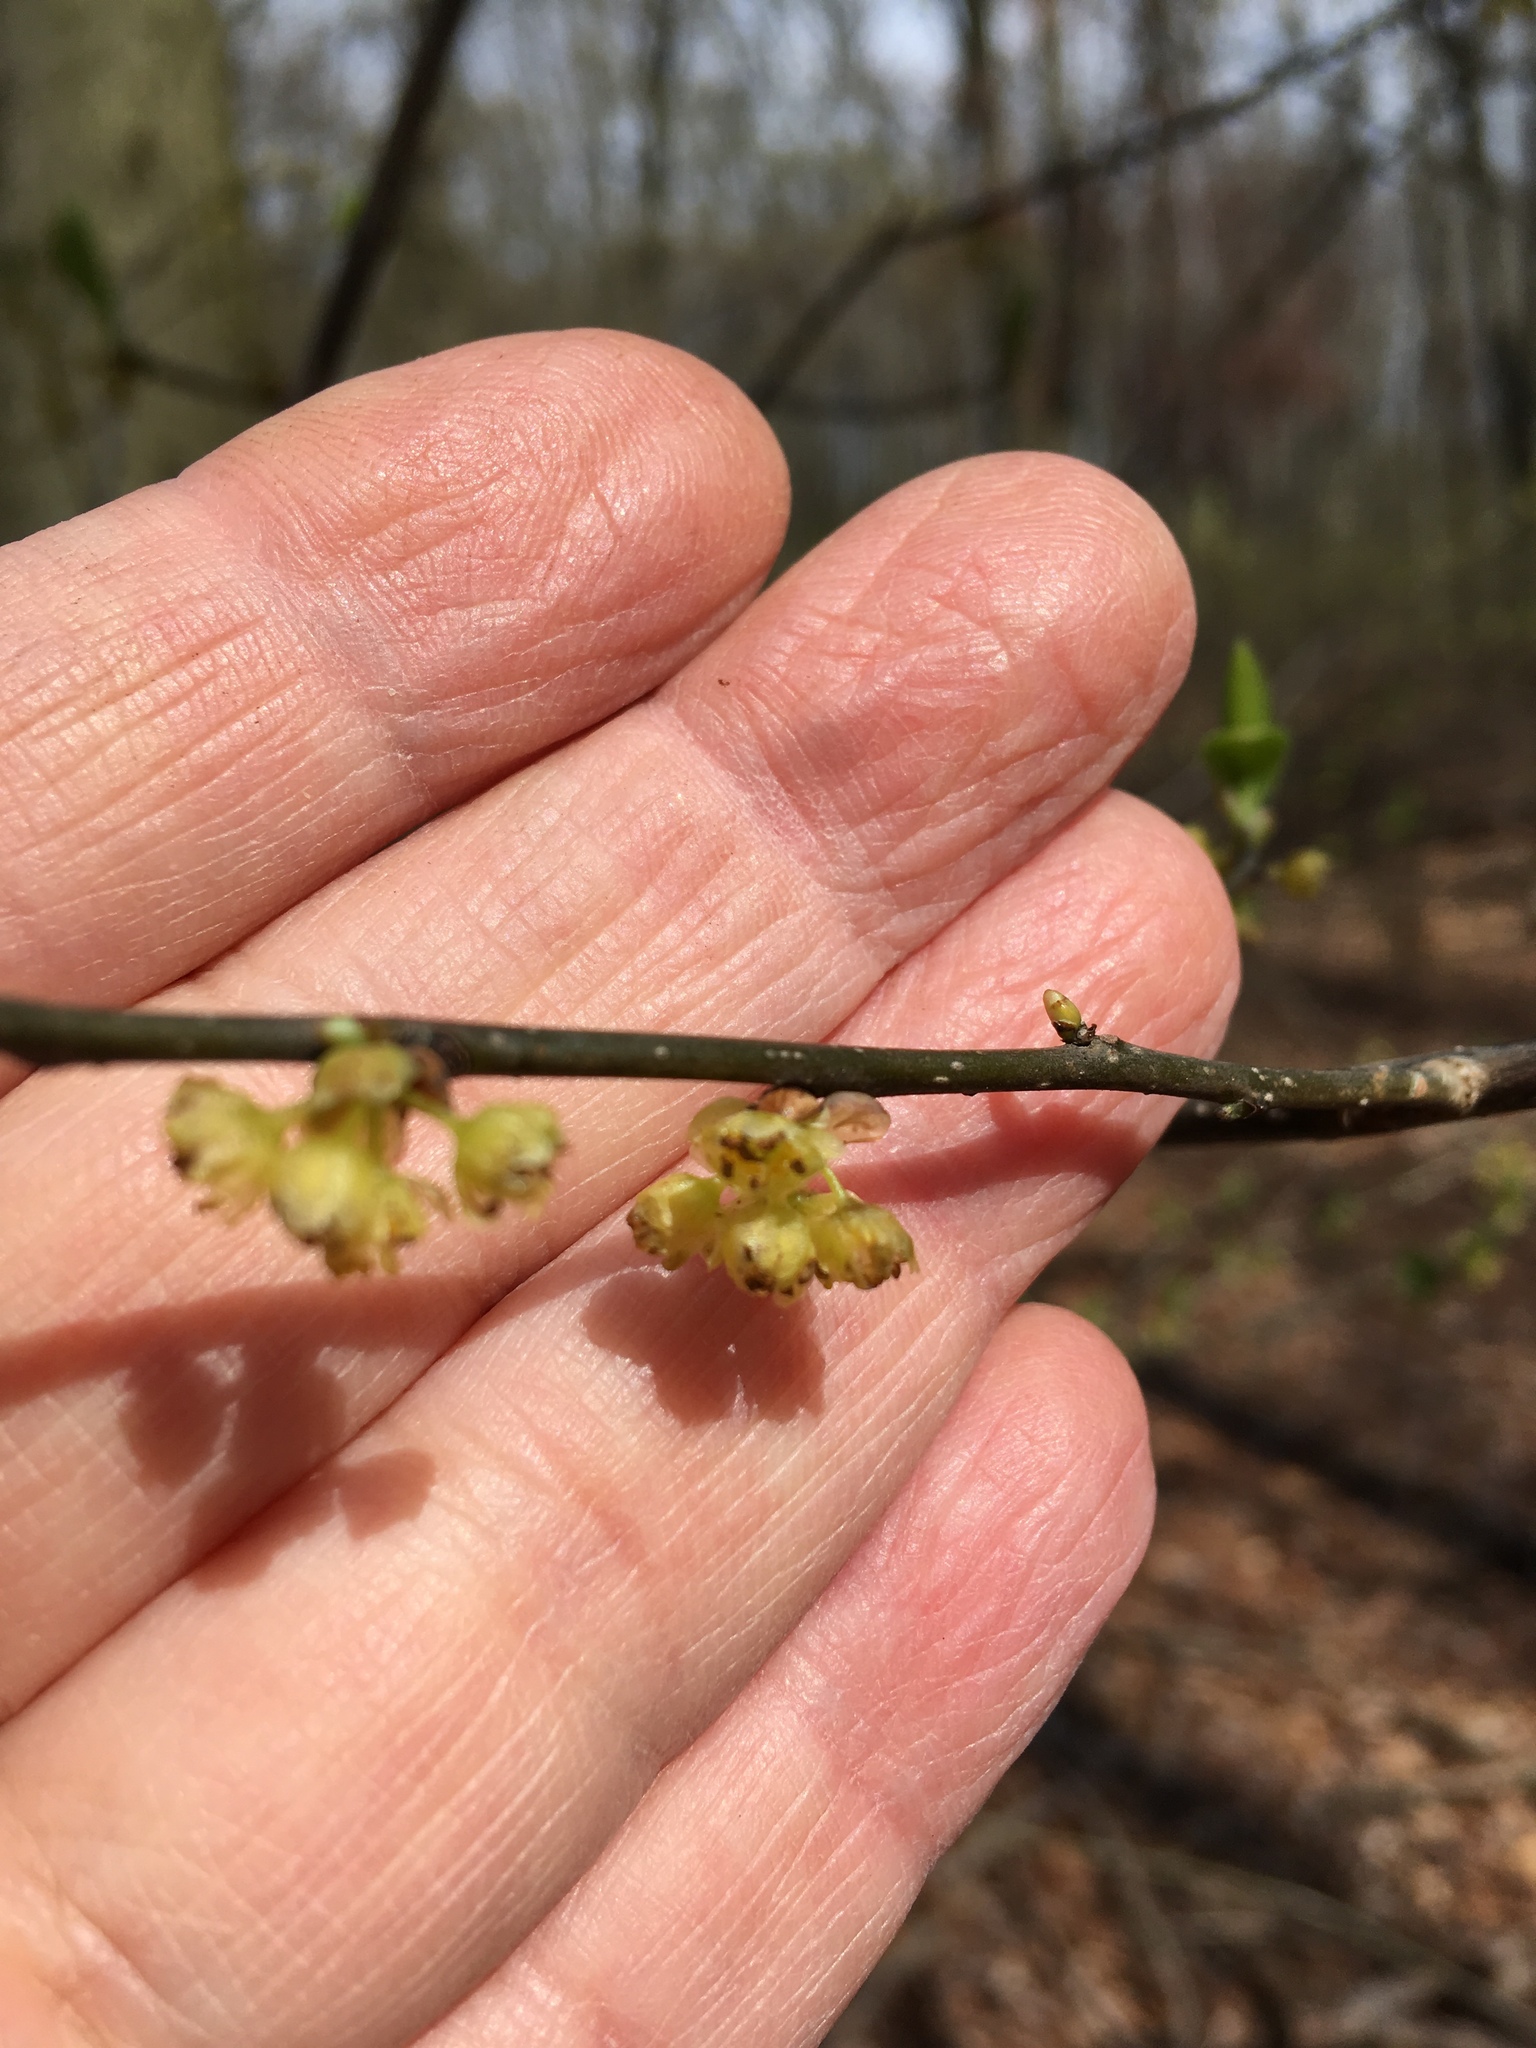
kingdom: Plantae
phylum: Tracheophyta
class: Magnoliopsida
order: Laurales
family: Lauraceae
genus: Lindera
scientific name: Lindera benzoin
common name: Spicebush
